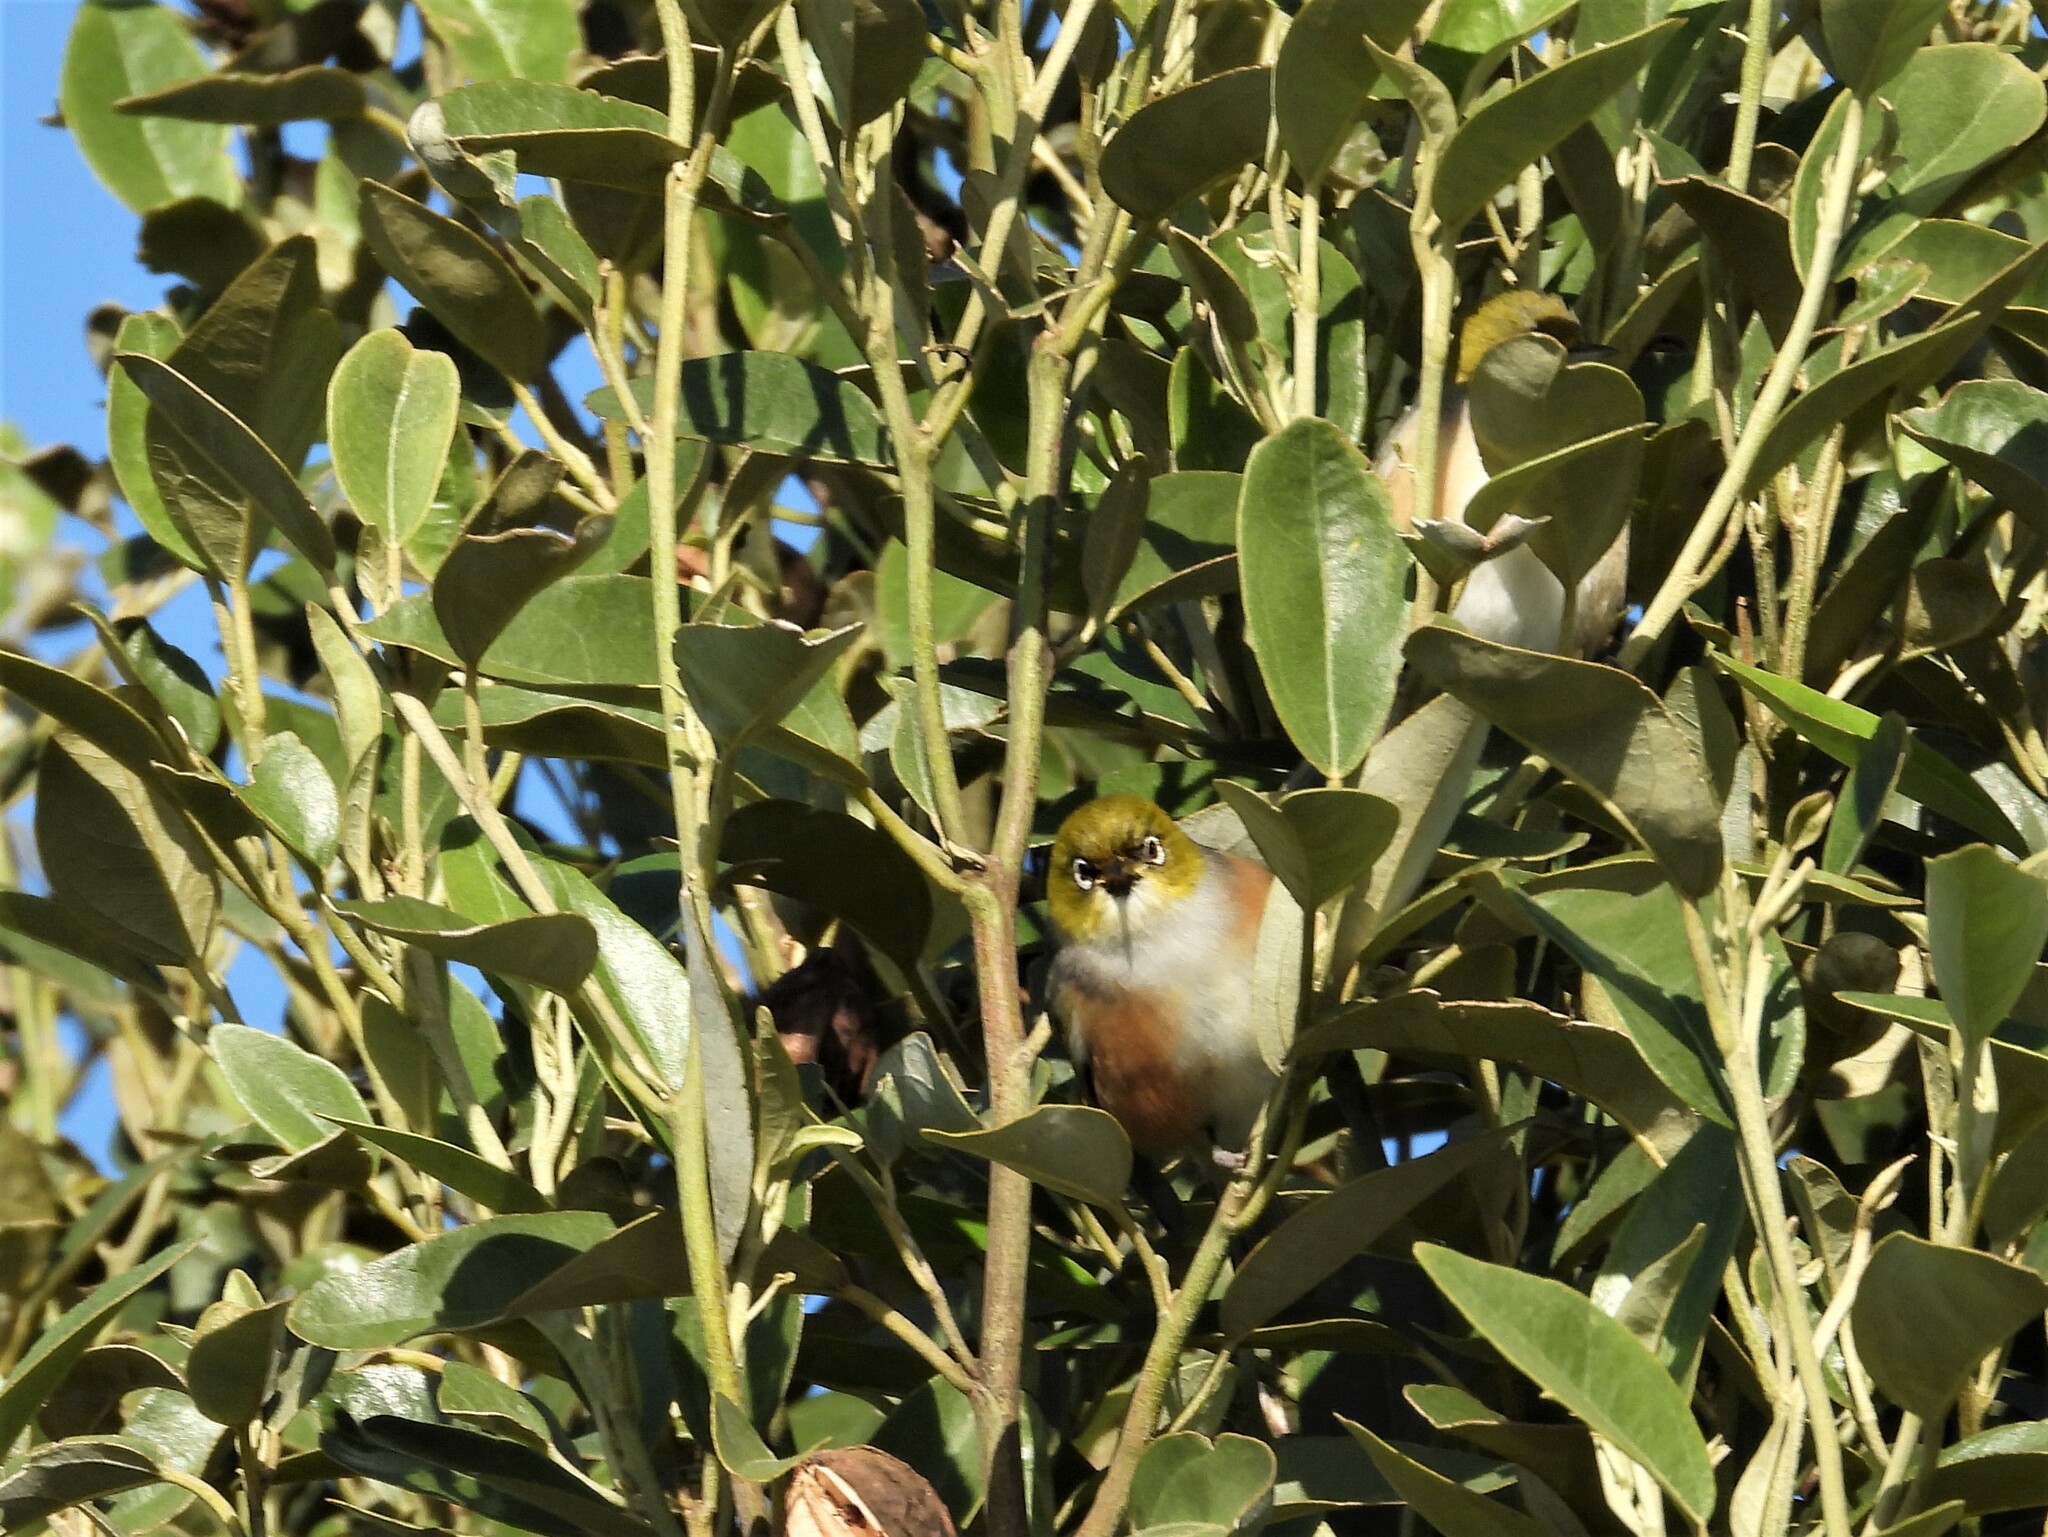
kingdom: Animalia
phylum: Chordata
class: Aves
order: Passeriformes
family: Zosteropidae
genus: Zosterops
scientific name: Zosterops lateralis
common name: Silvereye
